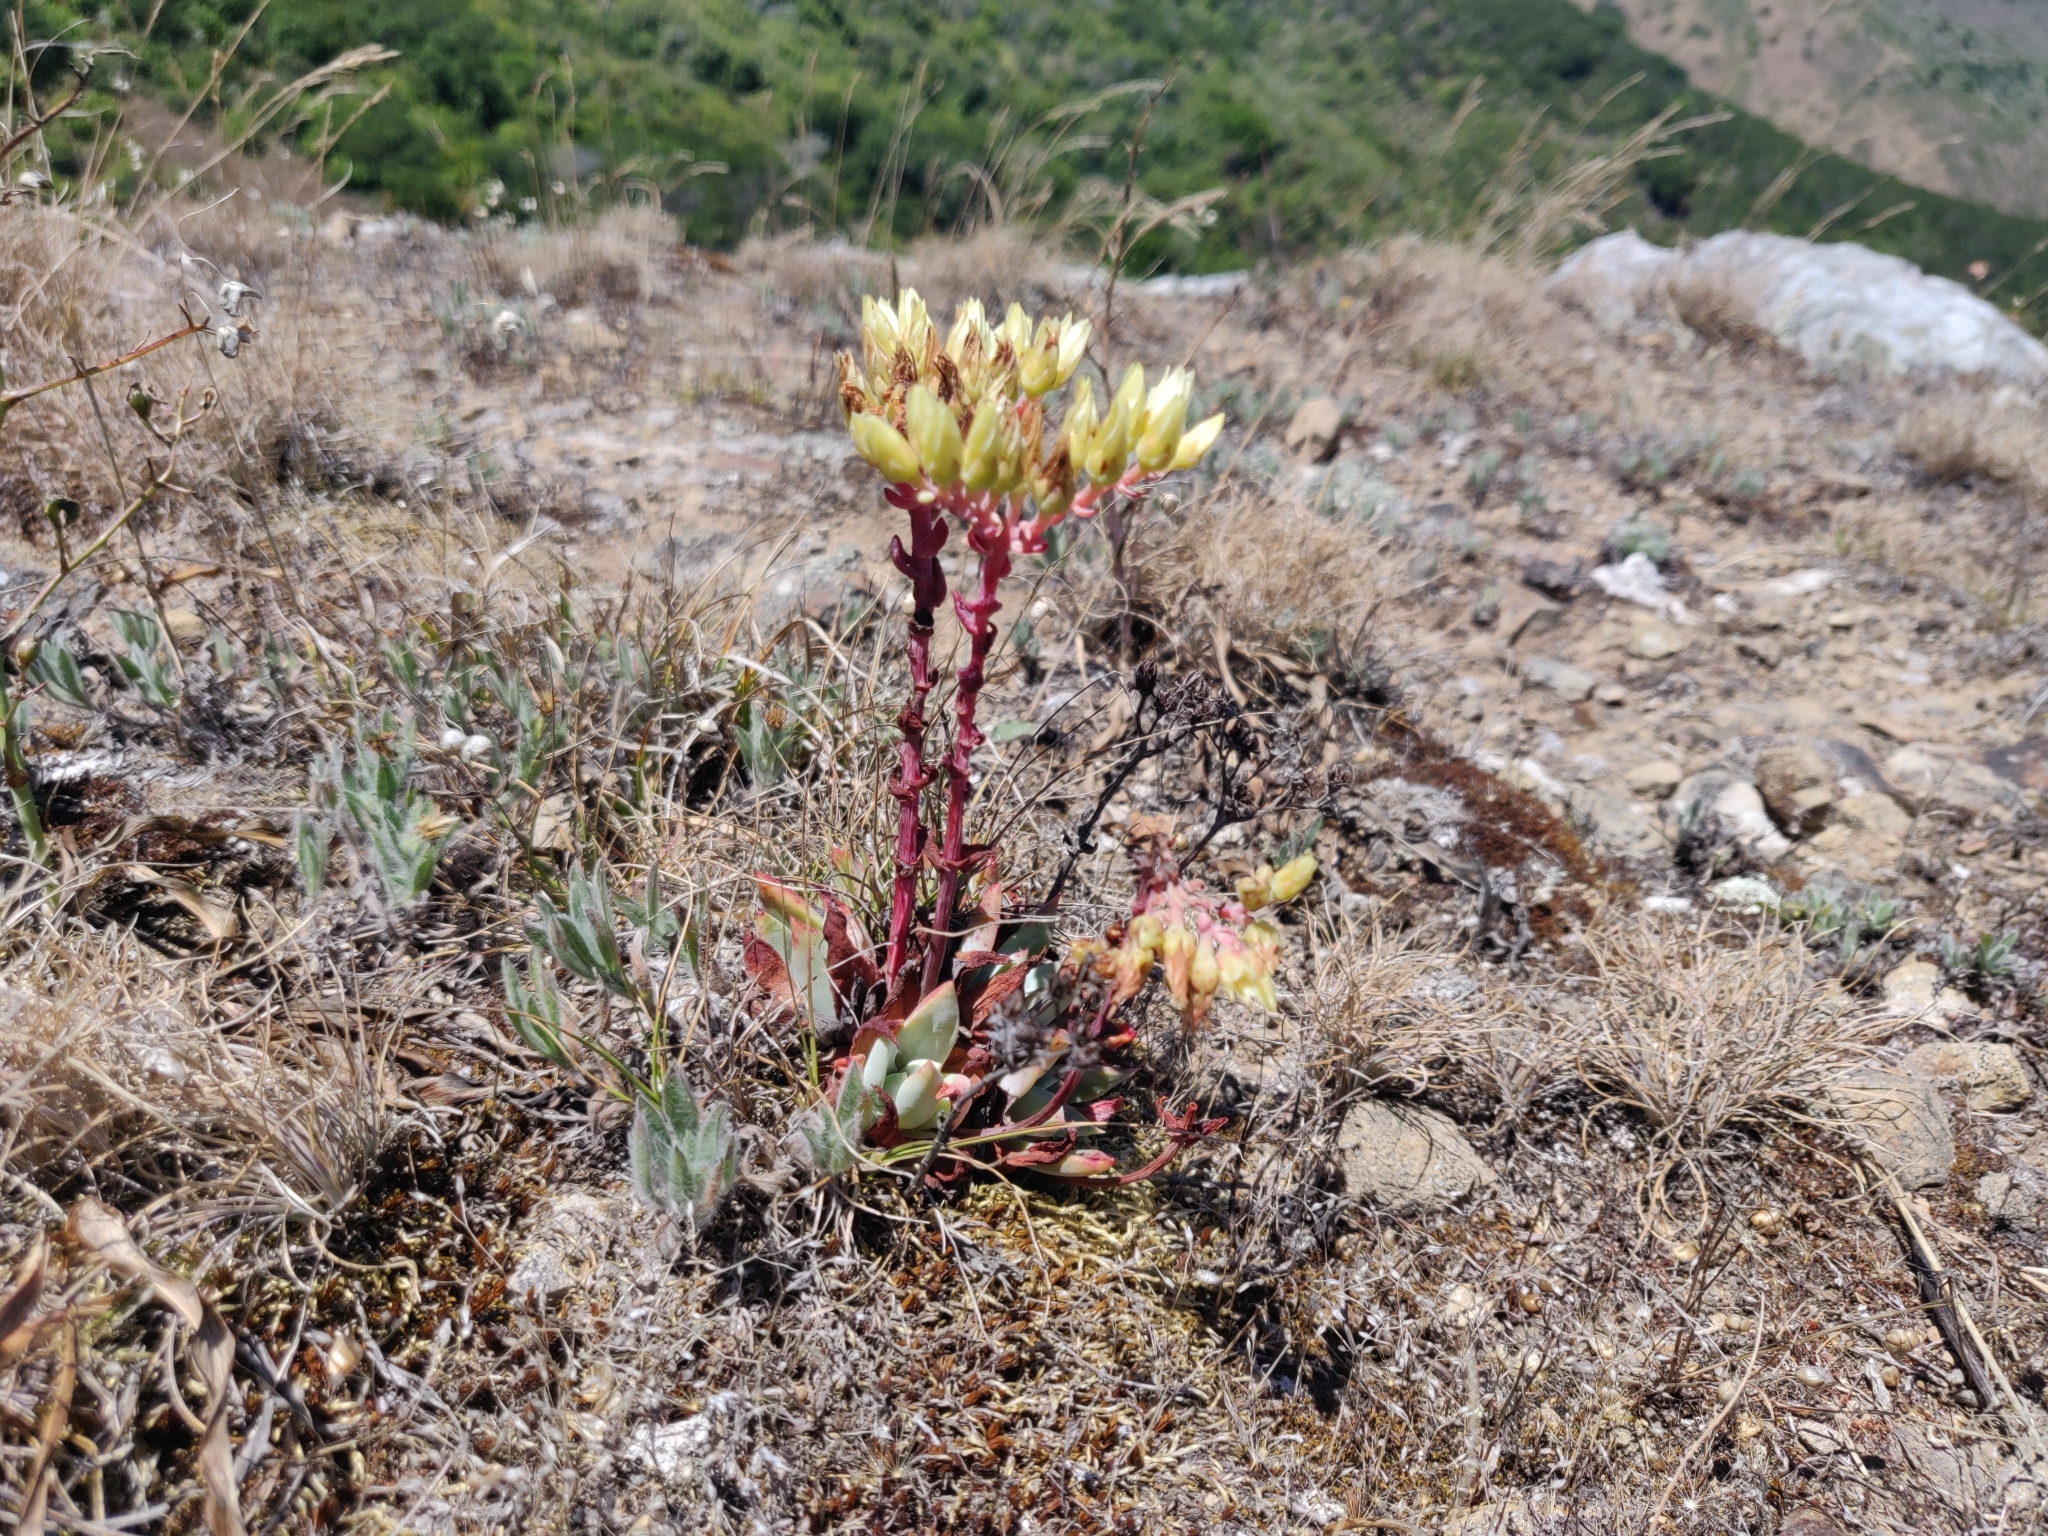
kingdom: Plantae
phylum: Tracheophyta
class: Magnoliopsida
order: Saxifragales
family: Crassulaceae
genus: Dudleya
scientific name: Dudleya farinosa
